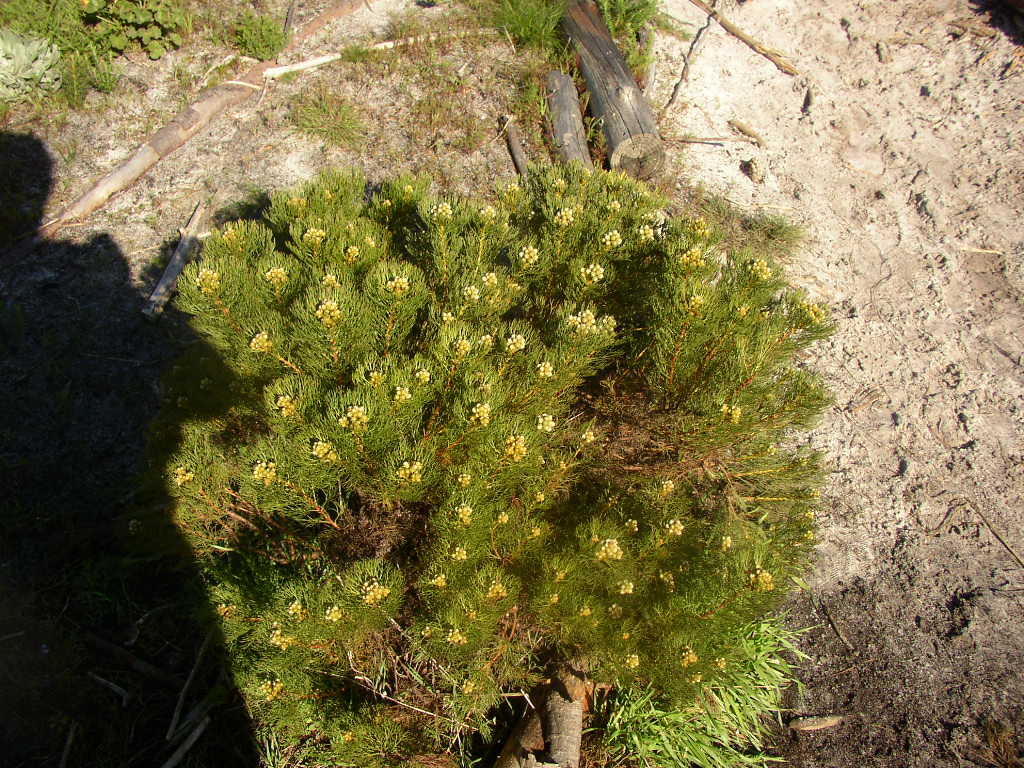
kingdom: Plantae
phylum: Tracheophyta
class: Magnoliopsida
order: Proteales
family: Proteaceae
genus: Serruria
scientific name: Serruria glomerata
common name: Cluster spiderhead
